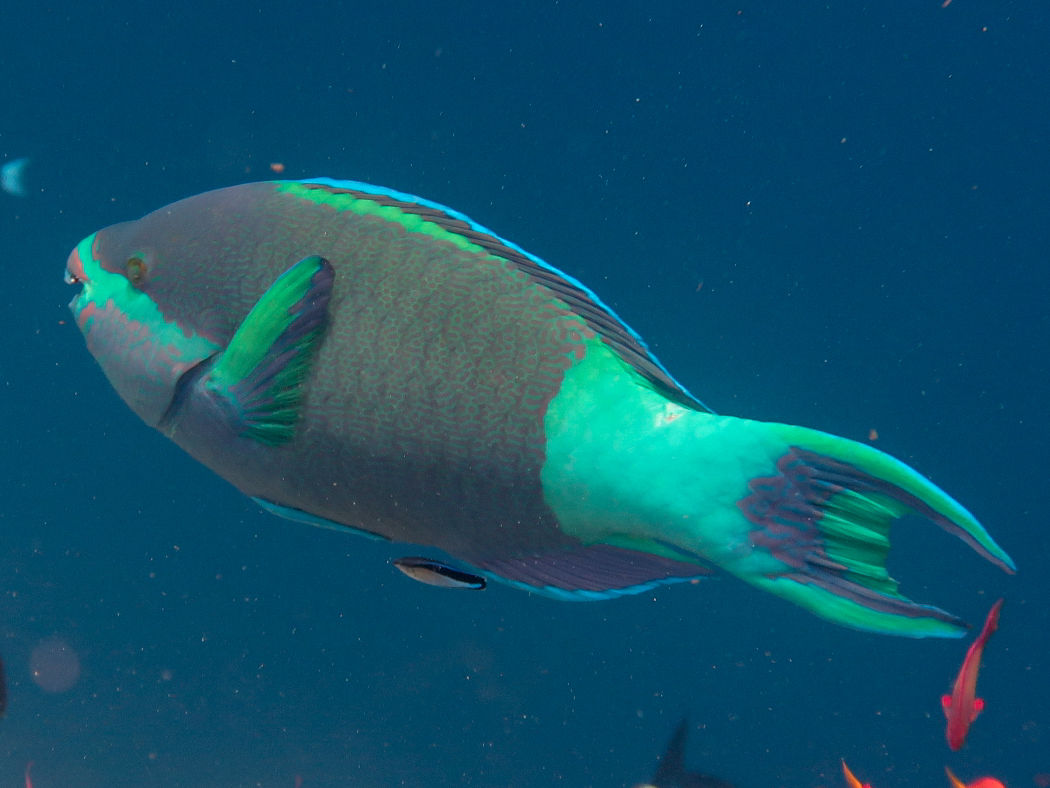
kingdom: Animalia
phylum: Chordata
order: Perciformes
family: Scaridae
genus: Scarus
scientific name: Scarus frenatus
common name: Bridled parrotfish
